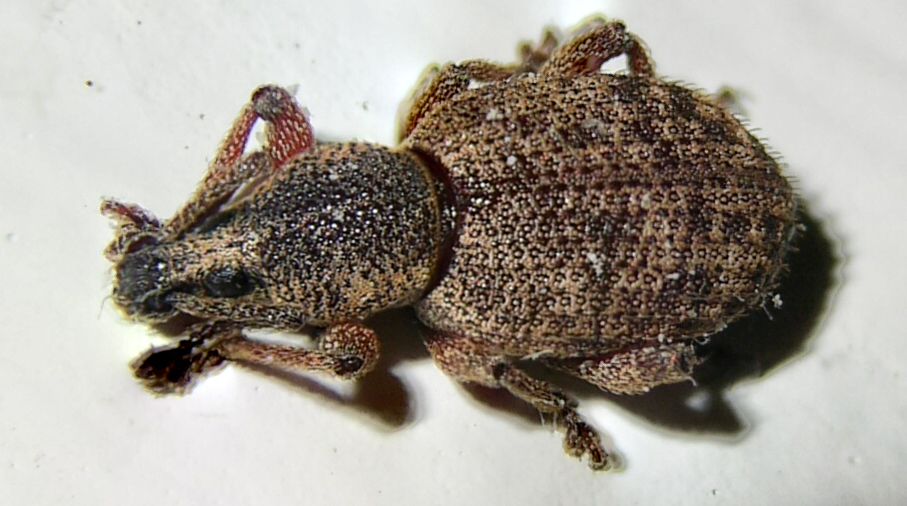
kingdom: Animalia
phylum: Arthropoda
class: Insecta
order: Coleoptera
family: Curculionidae
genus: Otiorhynchus
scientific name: Otiorhynchus singularis
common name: Clay-coloured weevil
